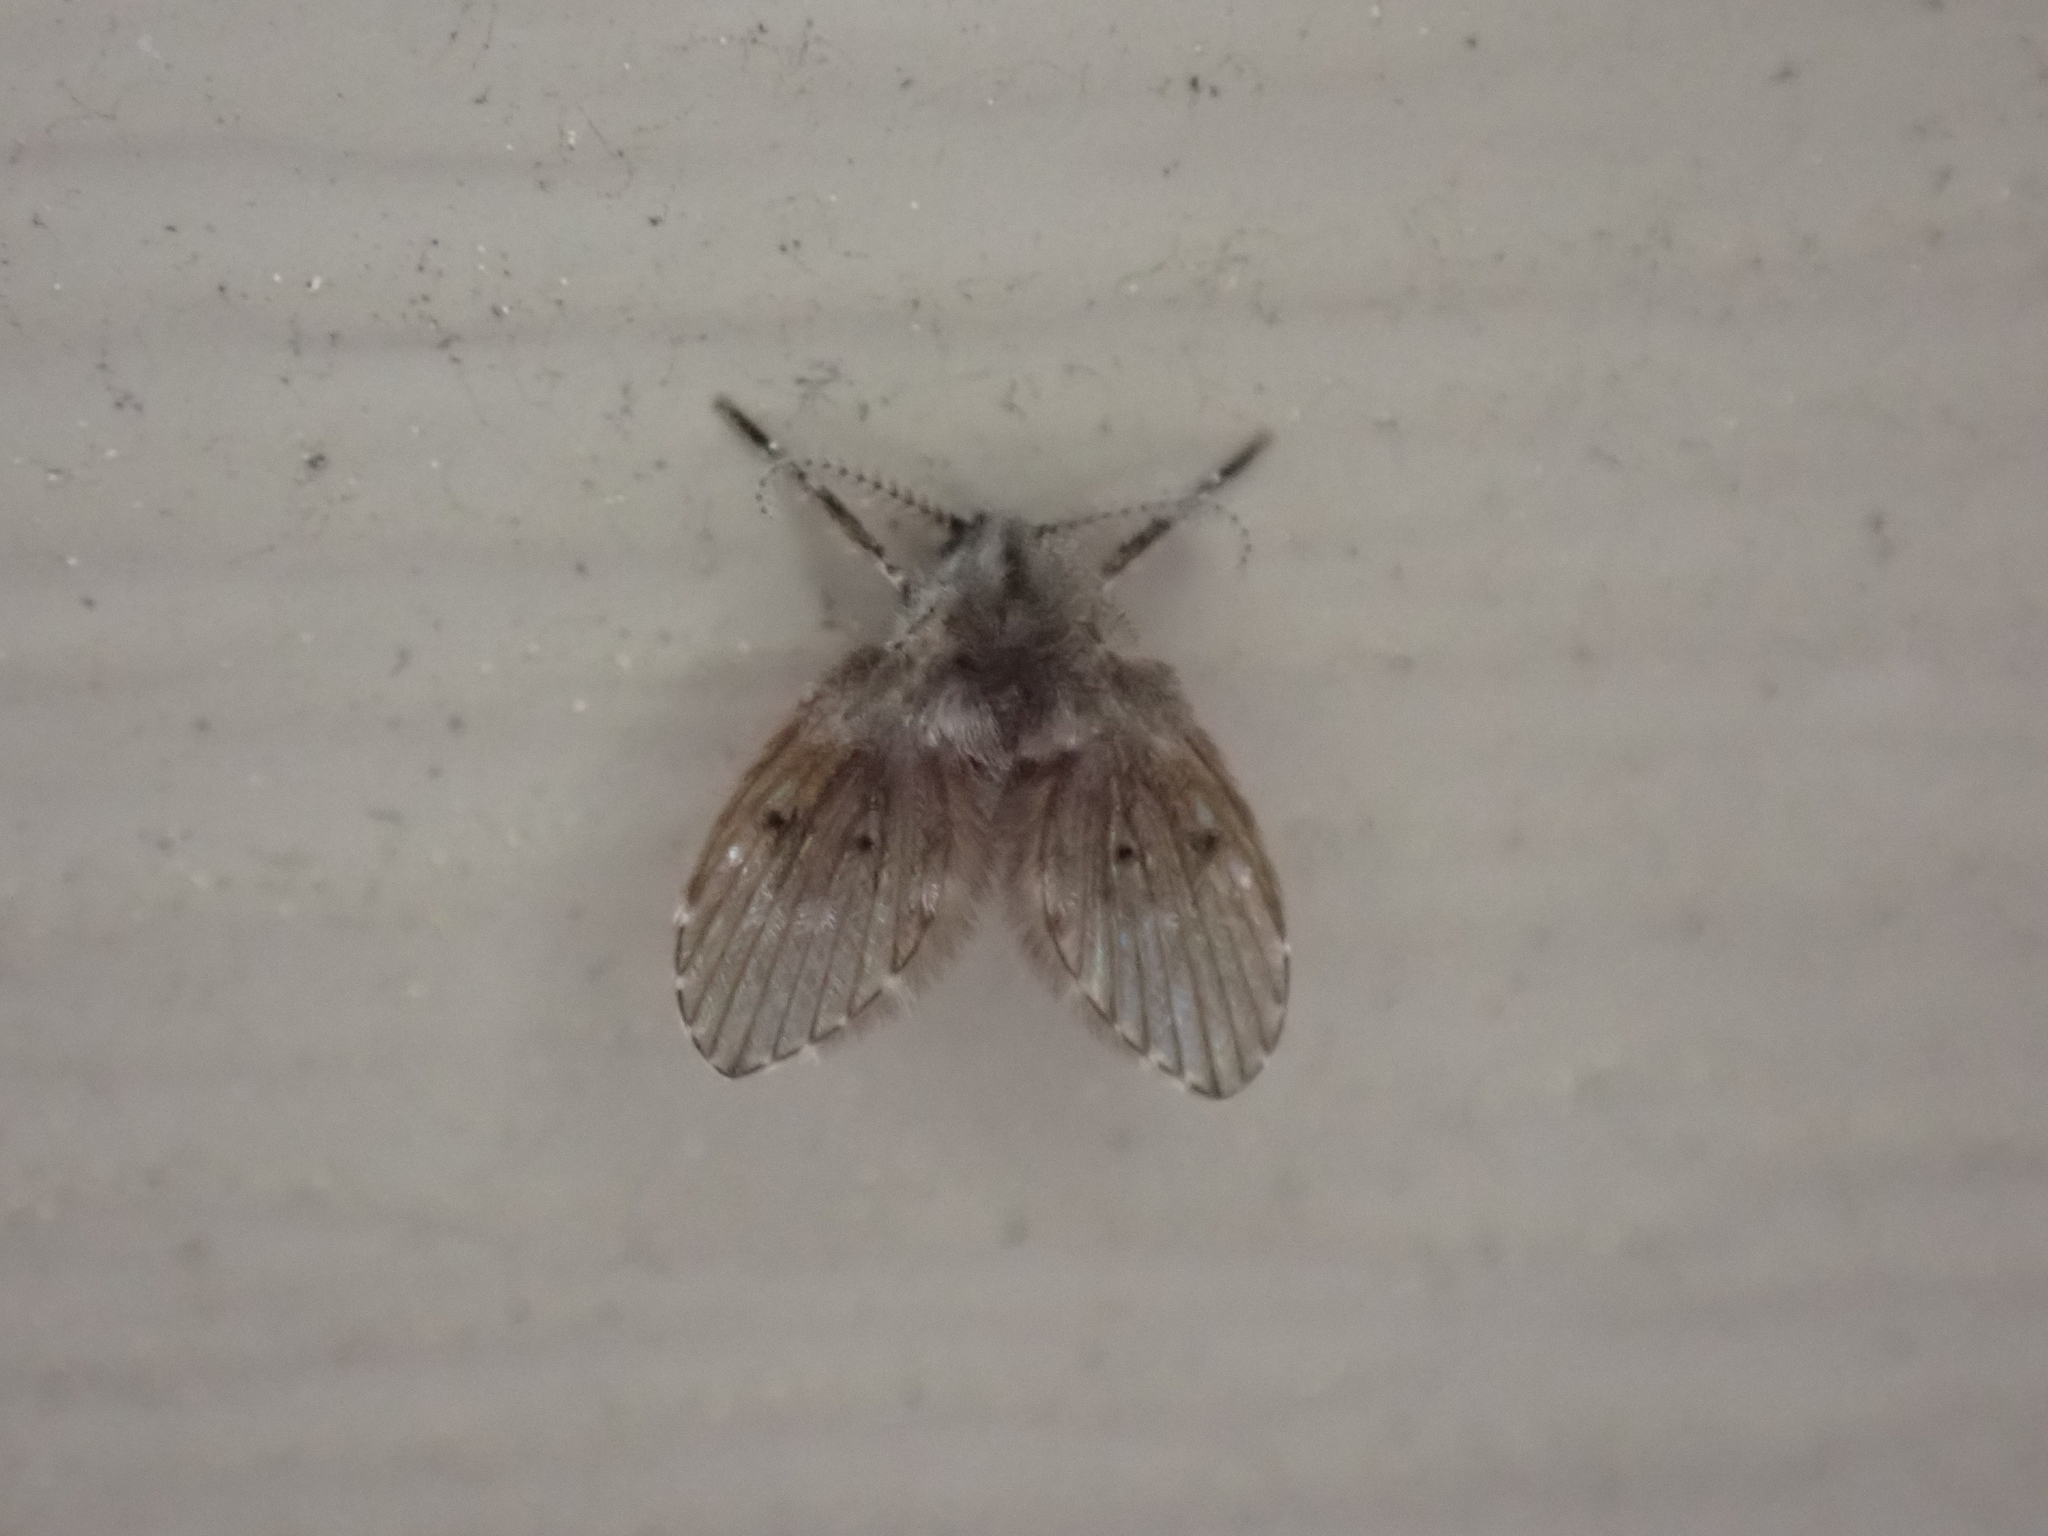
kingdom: Animalia
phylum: Arthropoda
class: Insecta
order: Diptera
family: Psychodidae
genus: Clogmia
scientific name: Clogmia albipunctatus
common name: White-spotted moth fly
